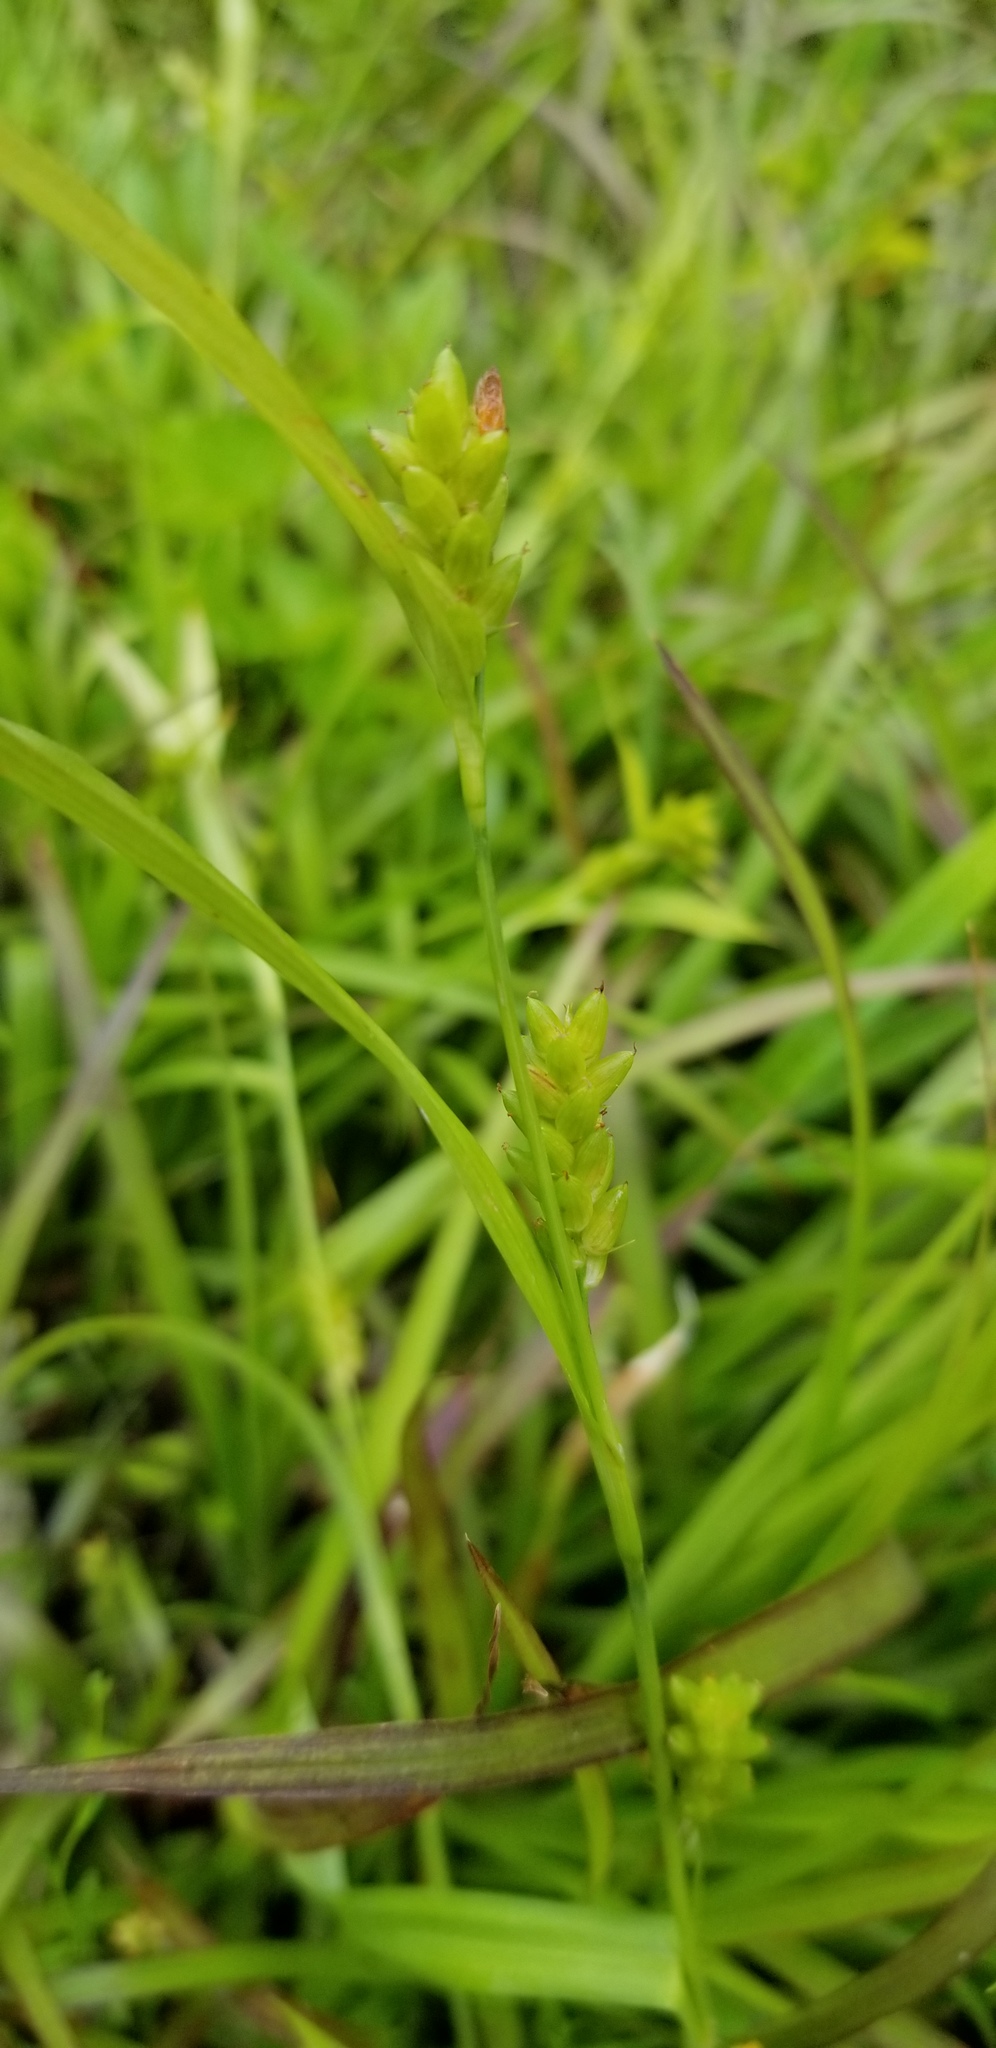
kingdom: Plantae
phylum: Tracheophyta
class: Liliopsida
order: Poales
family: Cyperaceae
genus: Carex
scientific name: Carex glaucodea
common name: Blue sedge
